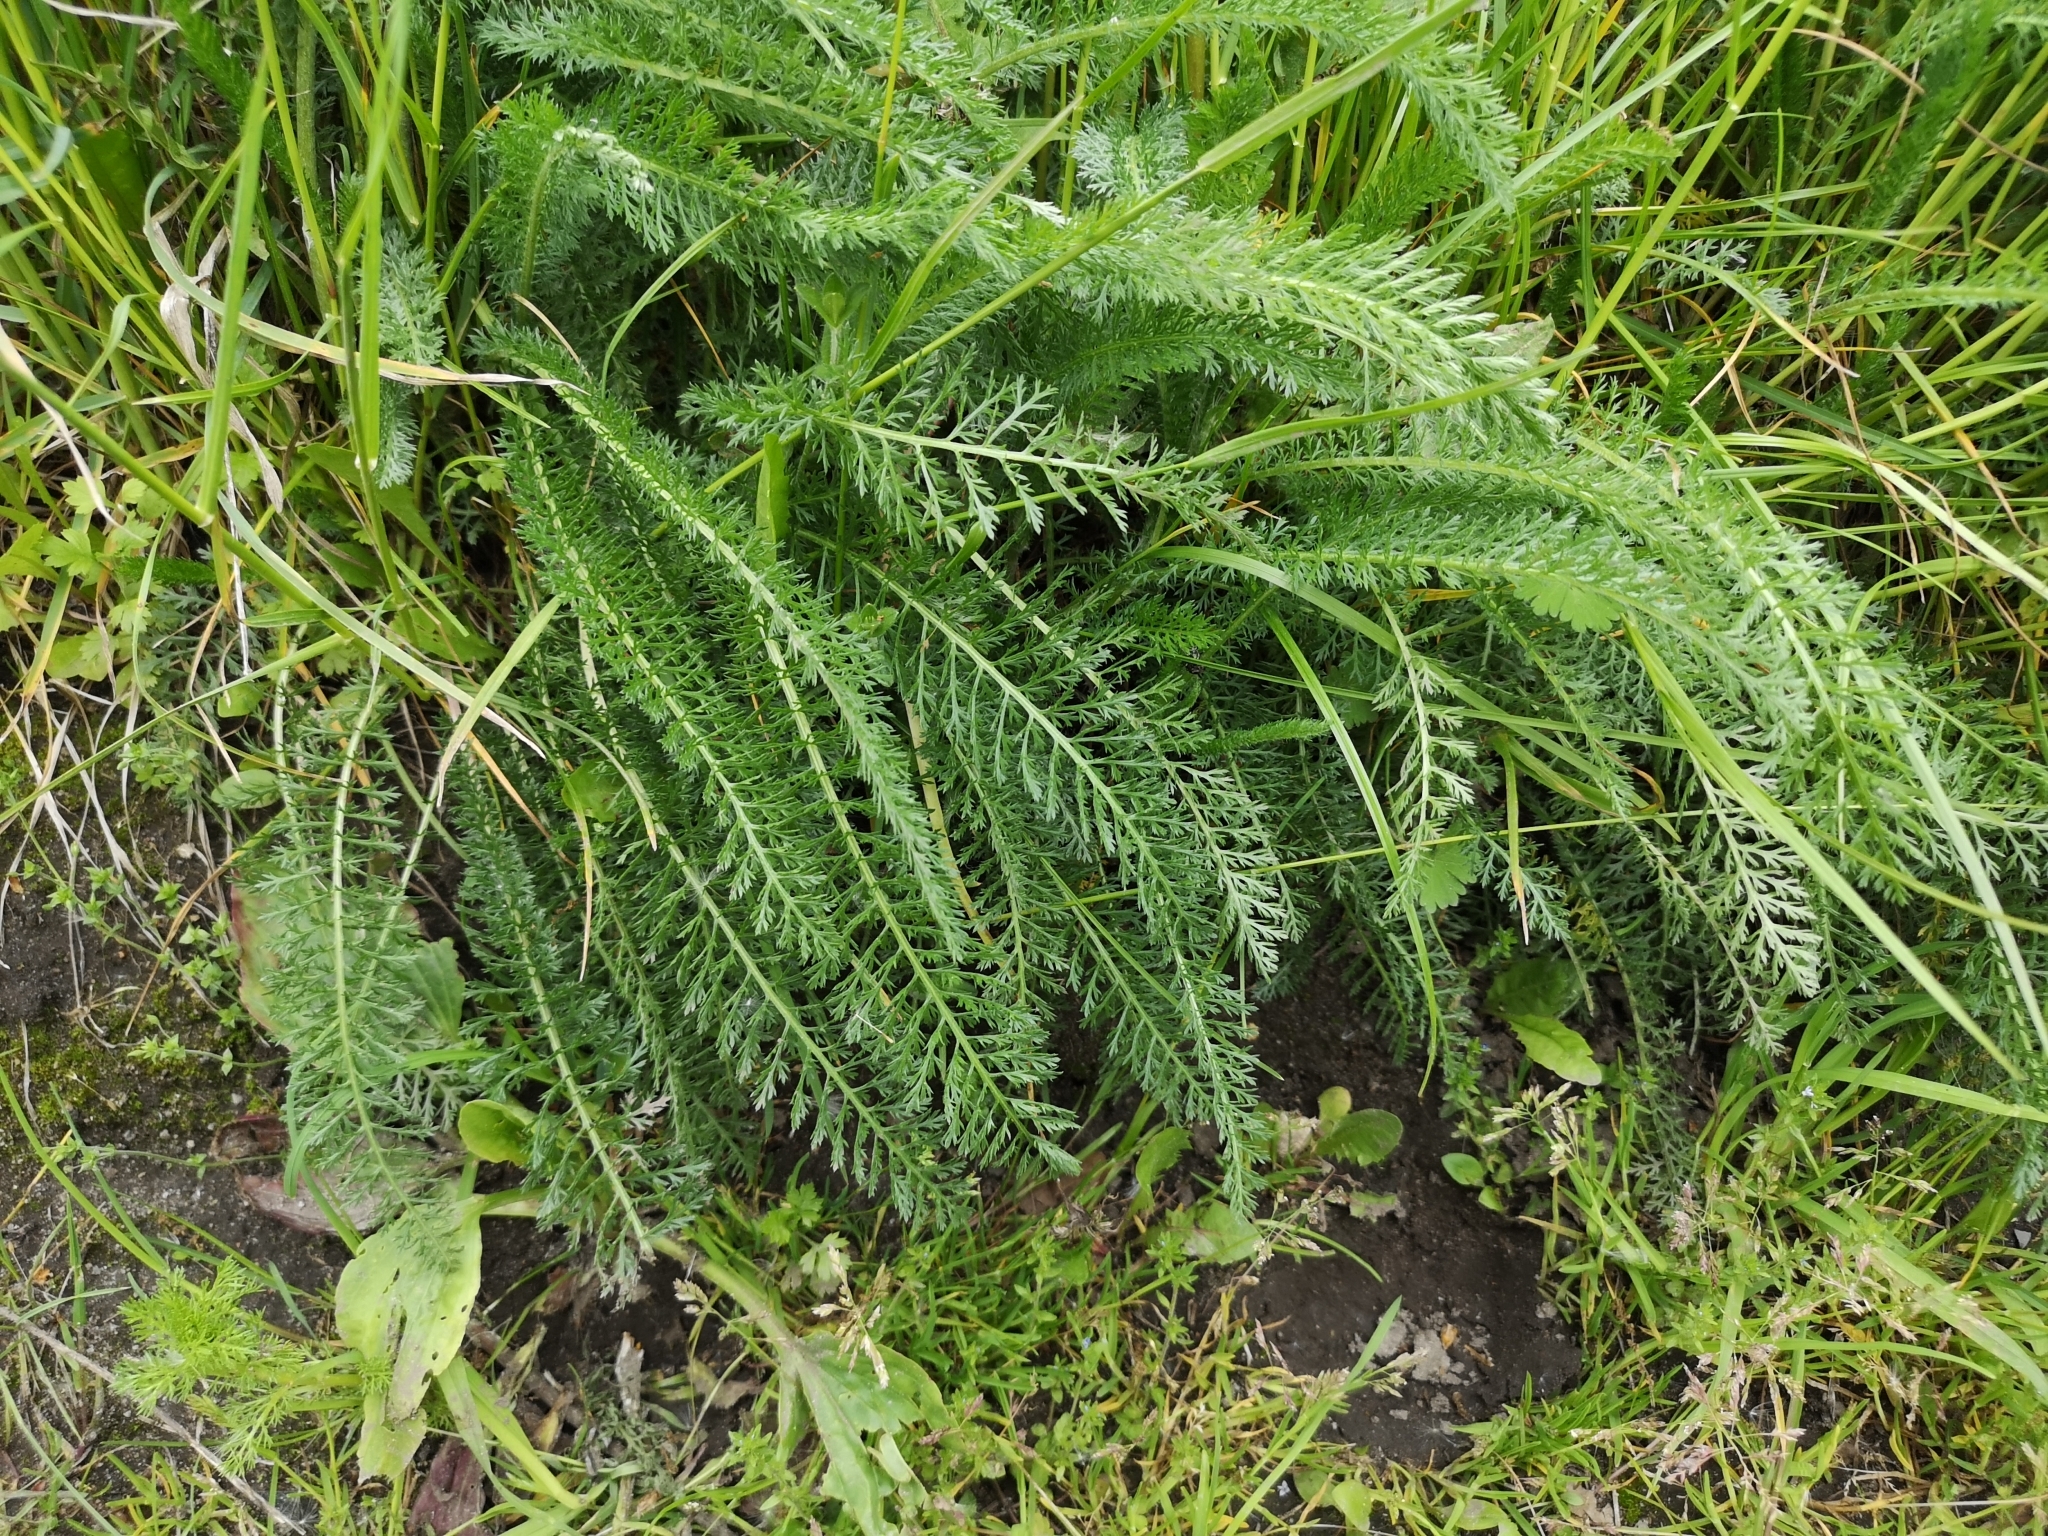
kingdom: Plantae
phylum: Tracheophyta
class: Magnoliopsida
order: Asterales
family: Asteraceae
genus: Achillea
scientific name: Achillea millefolium
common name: Yarrow
